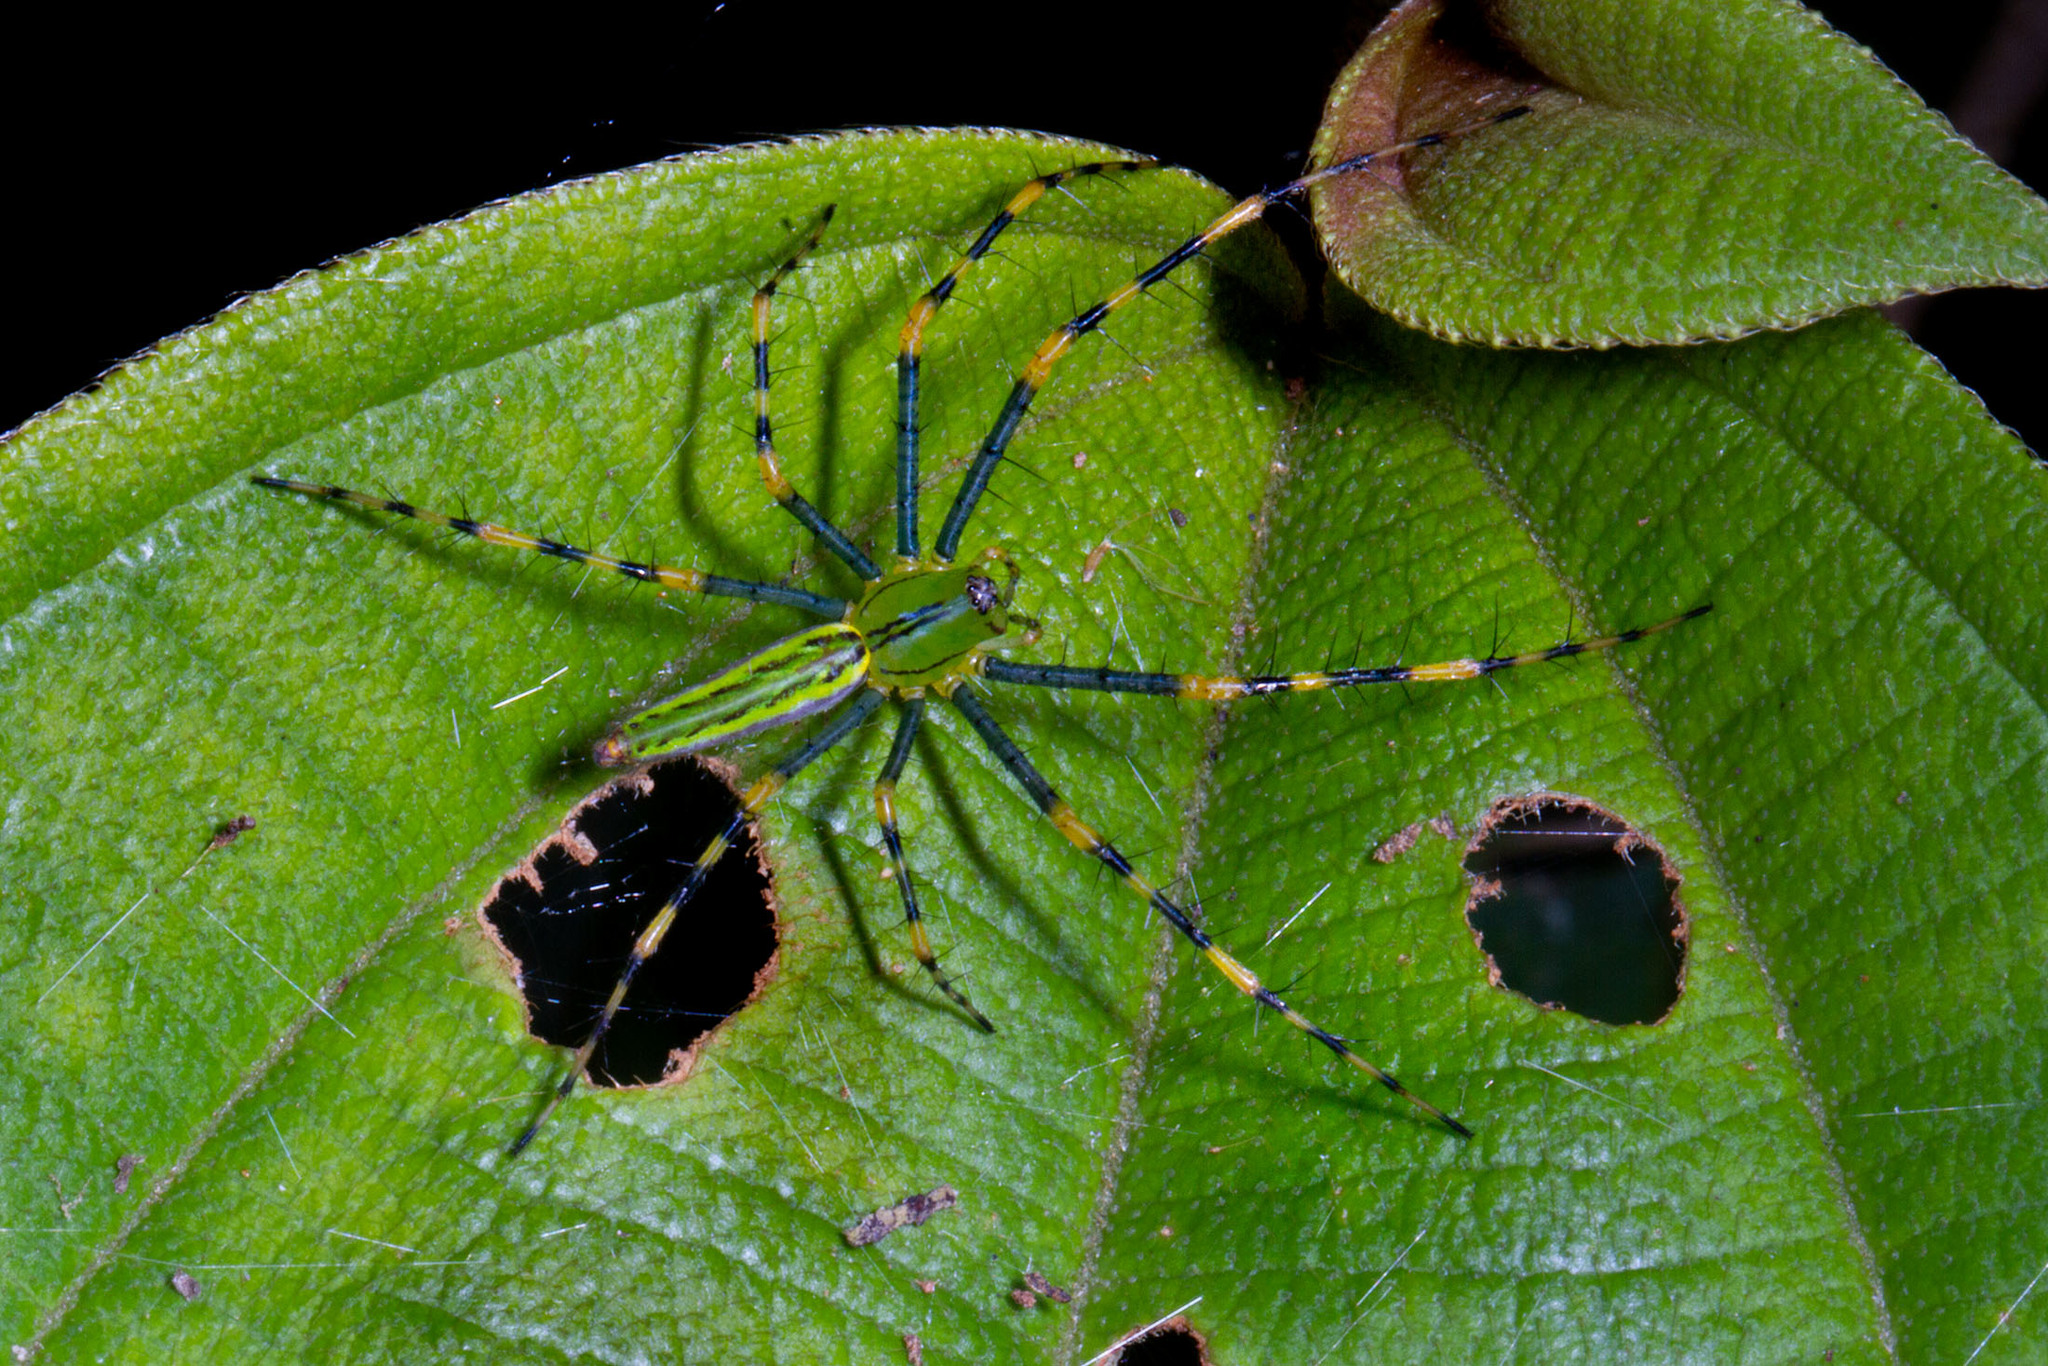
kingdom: Animalia
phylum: Arthropoda
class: Arachnida
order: Araneae
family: Oxyopidae
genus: Peucetia
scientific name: Peucetia madagascariensis
